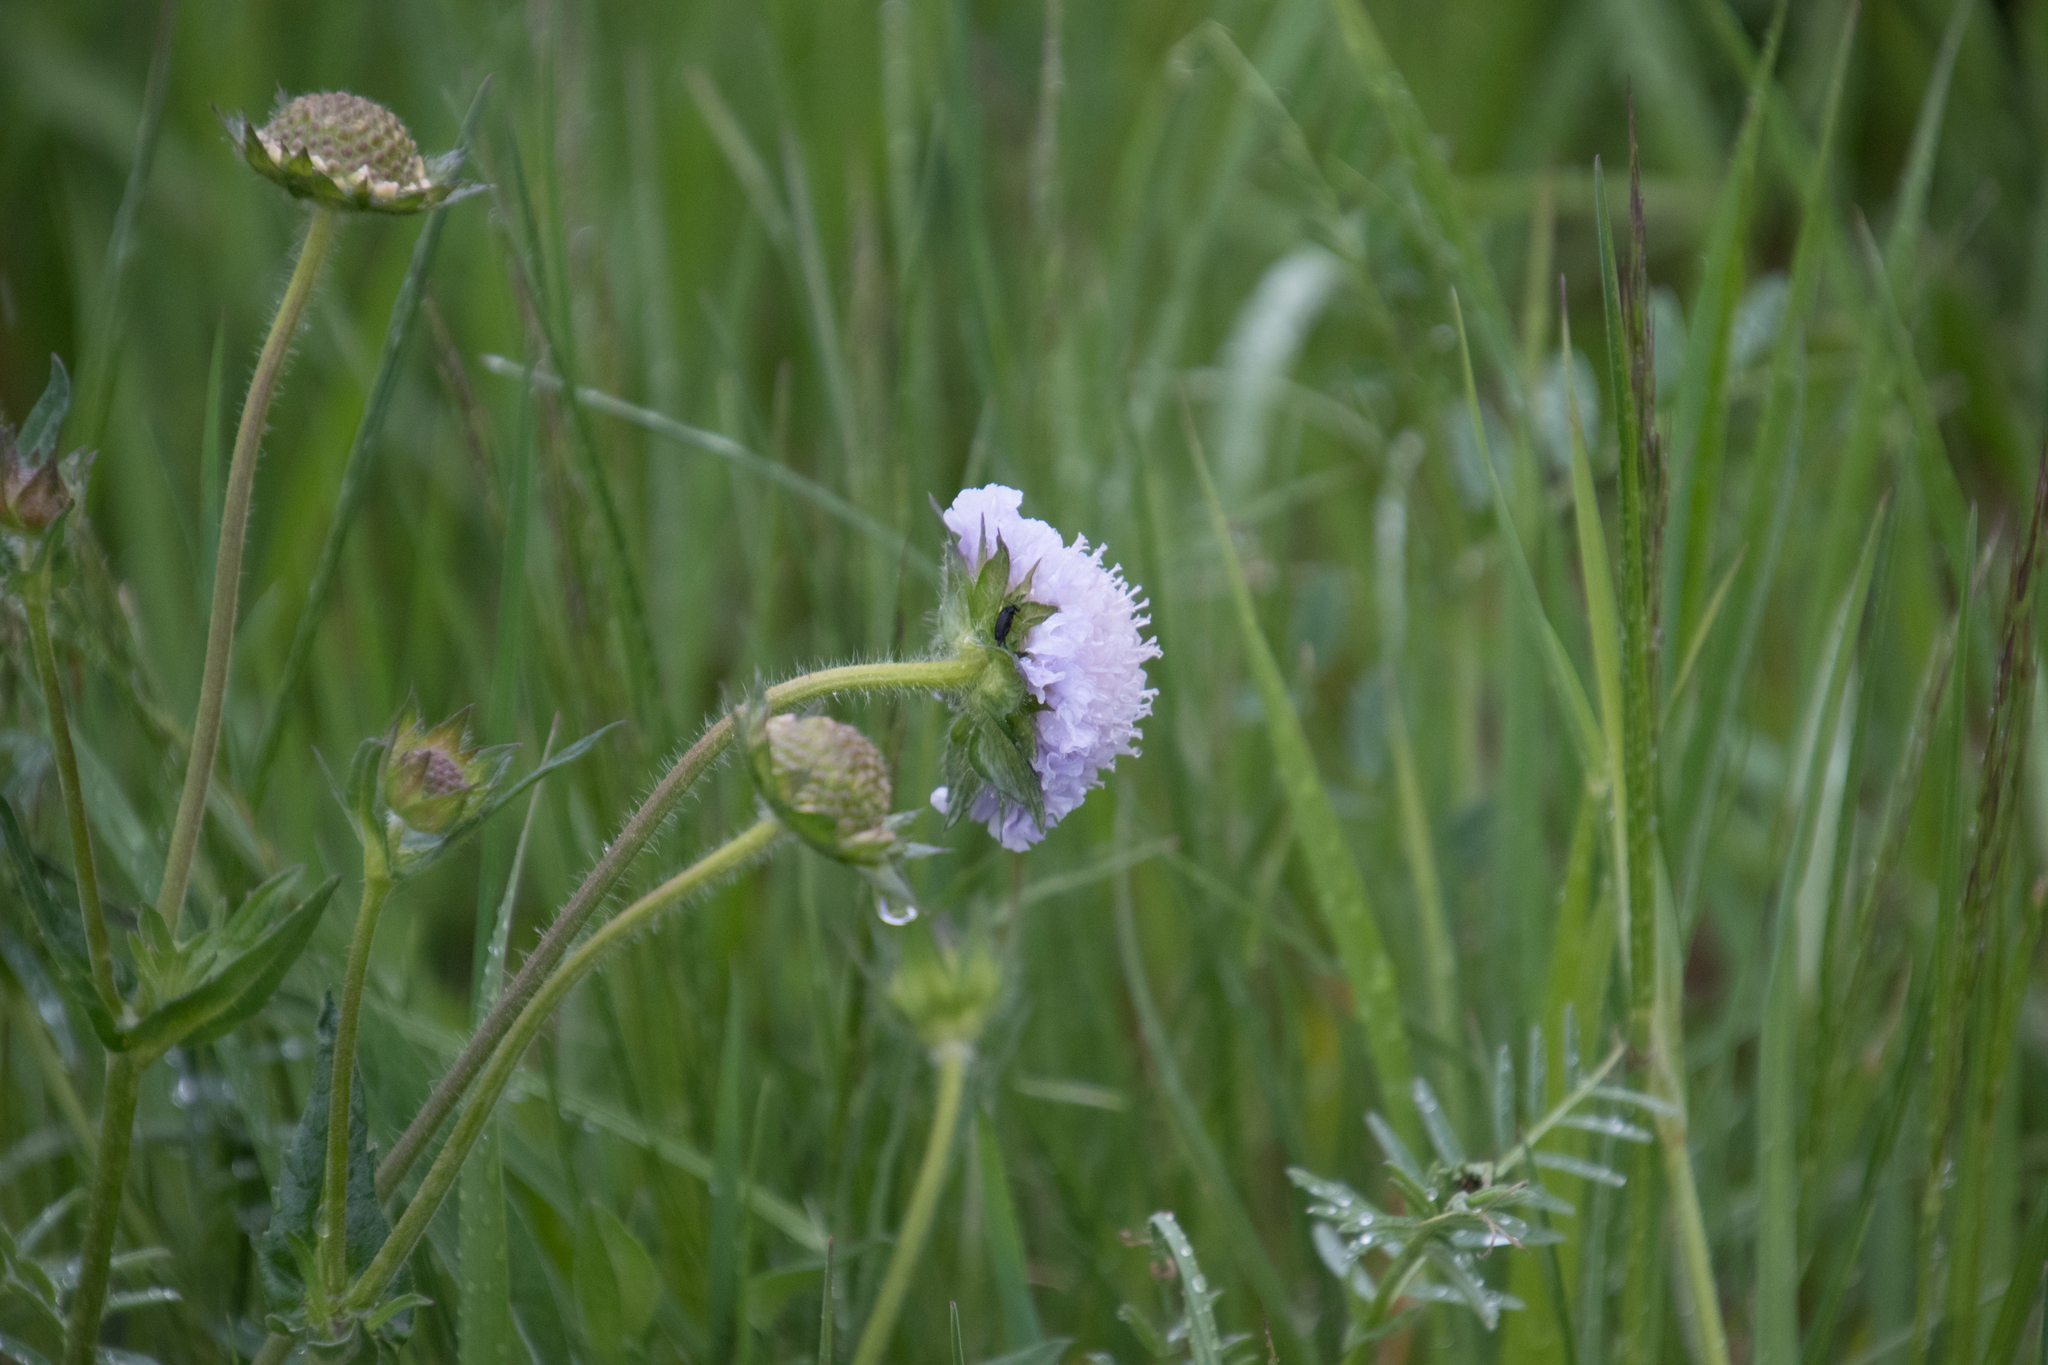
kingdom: Plantae
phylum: Tracheophyta
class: Magnoliopsida
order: Dipsacales
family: Caprifoliaceae
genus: Knautia
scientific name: Knautia arvensis
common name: Field scabiosa
